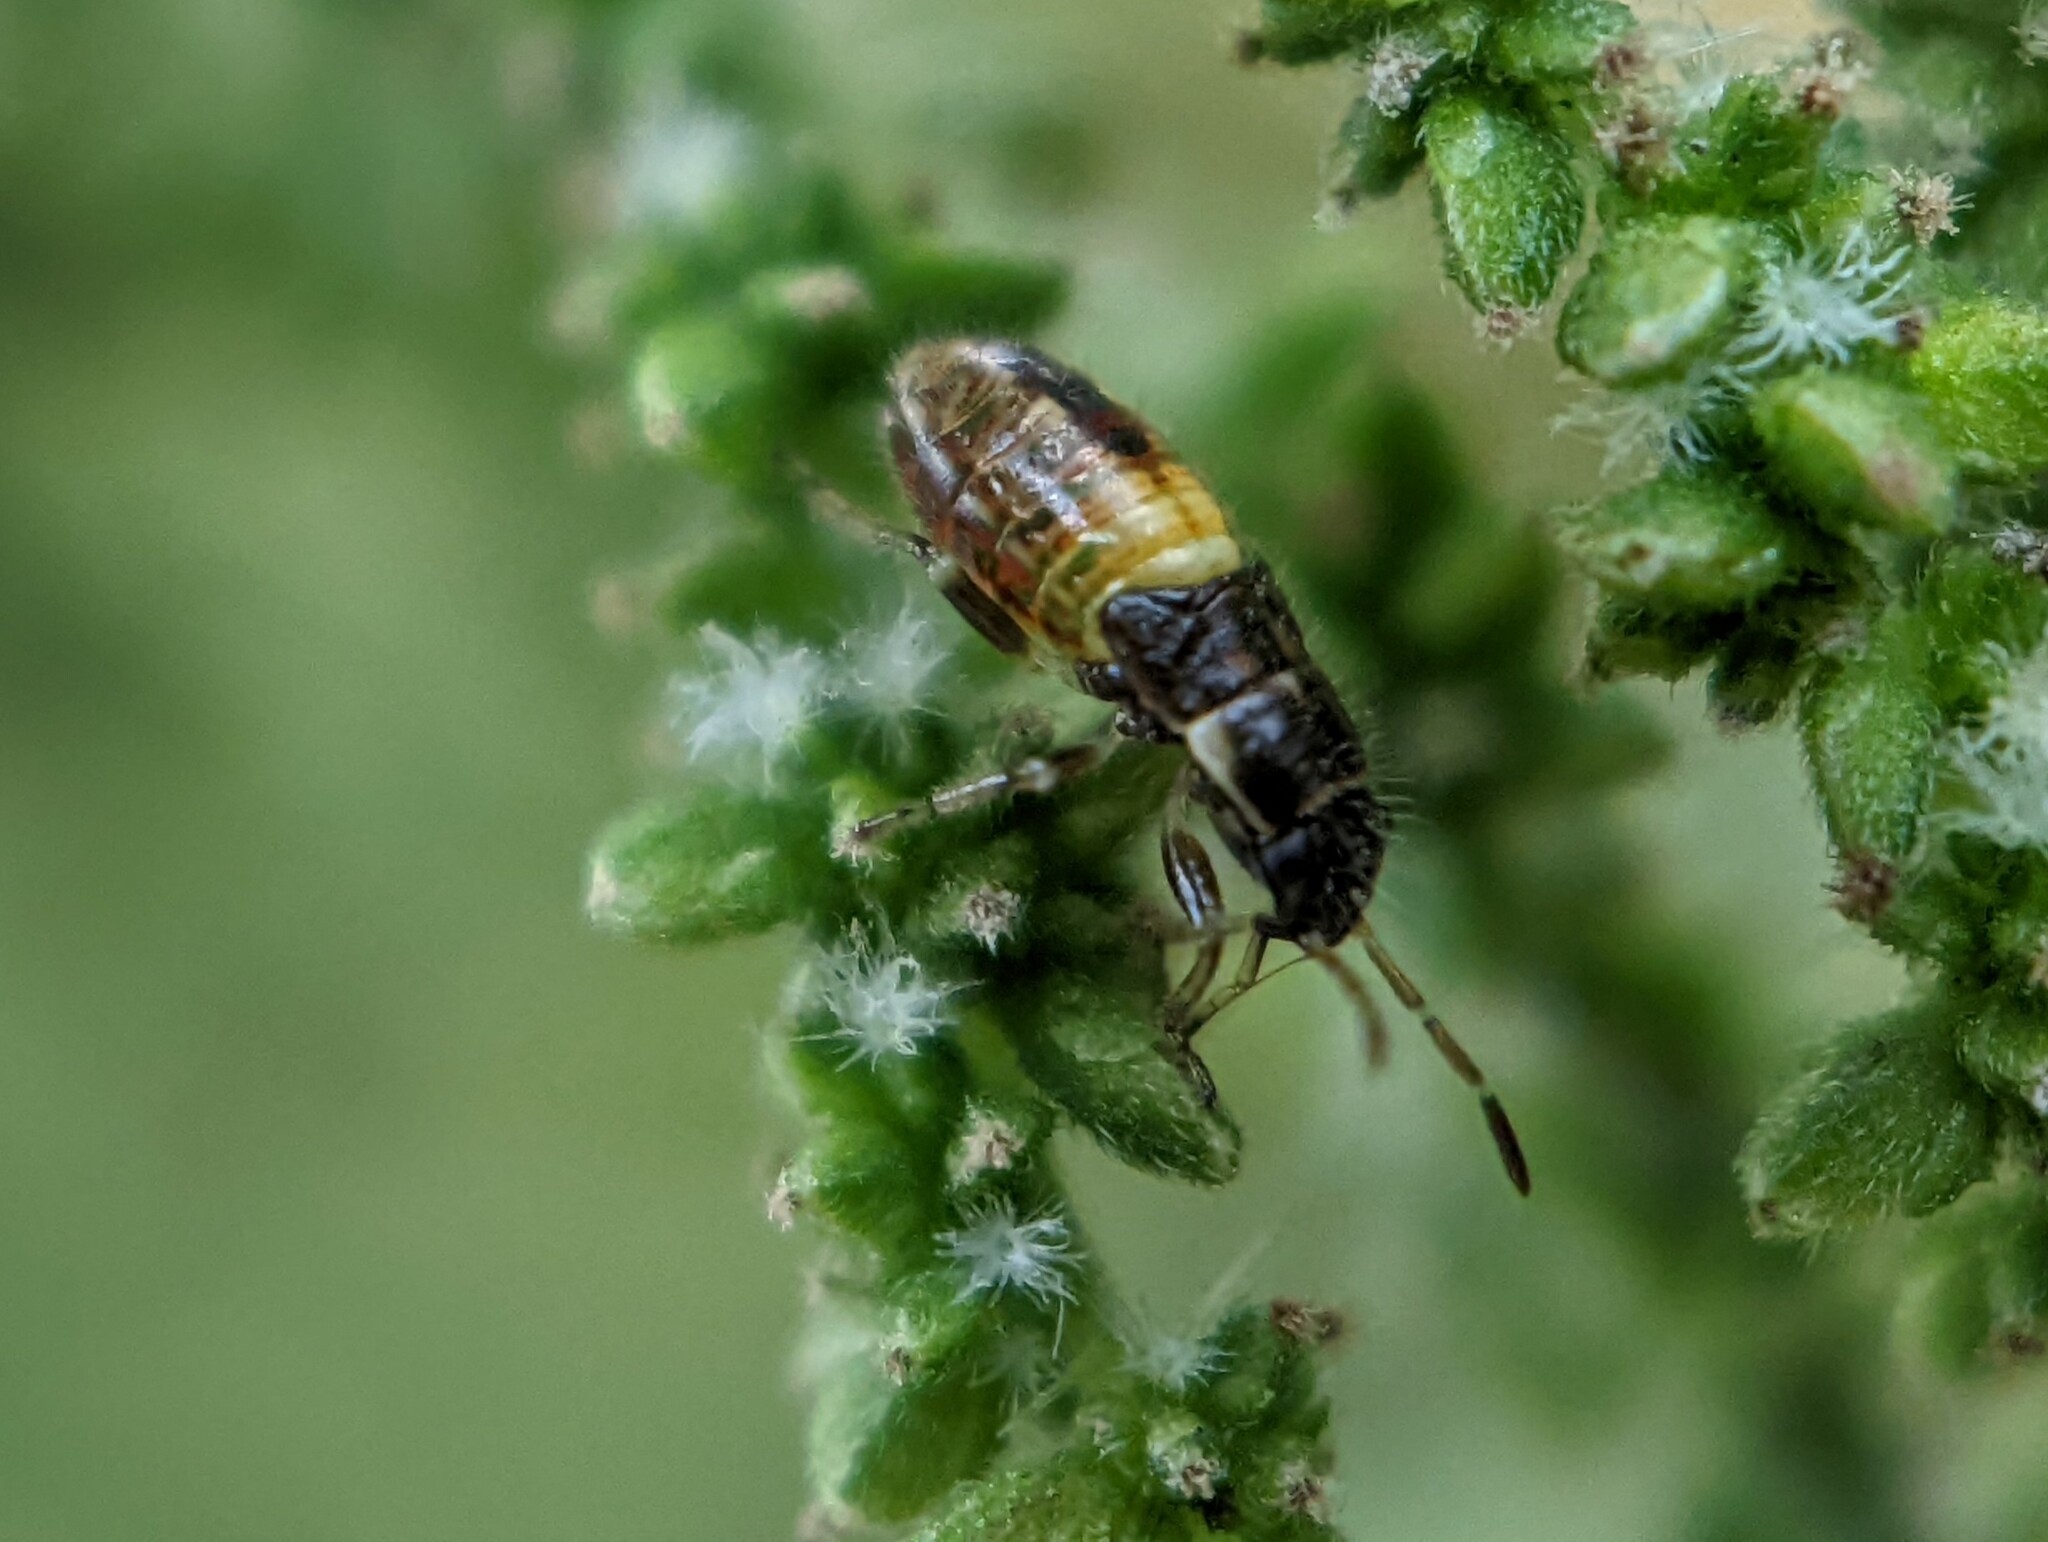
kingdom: Animalia
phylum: Arthropoda
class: Insecta
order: Hemiptera
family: Heterogastridae
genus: Heterogaster
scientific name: Heterogaster urticae
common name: Seed bug
